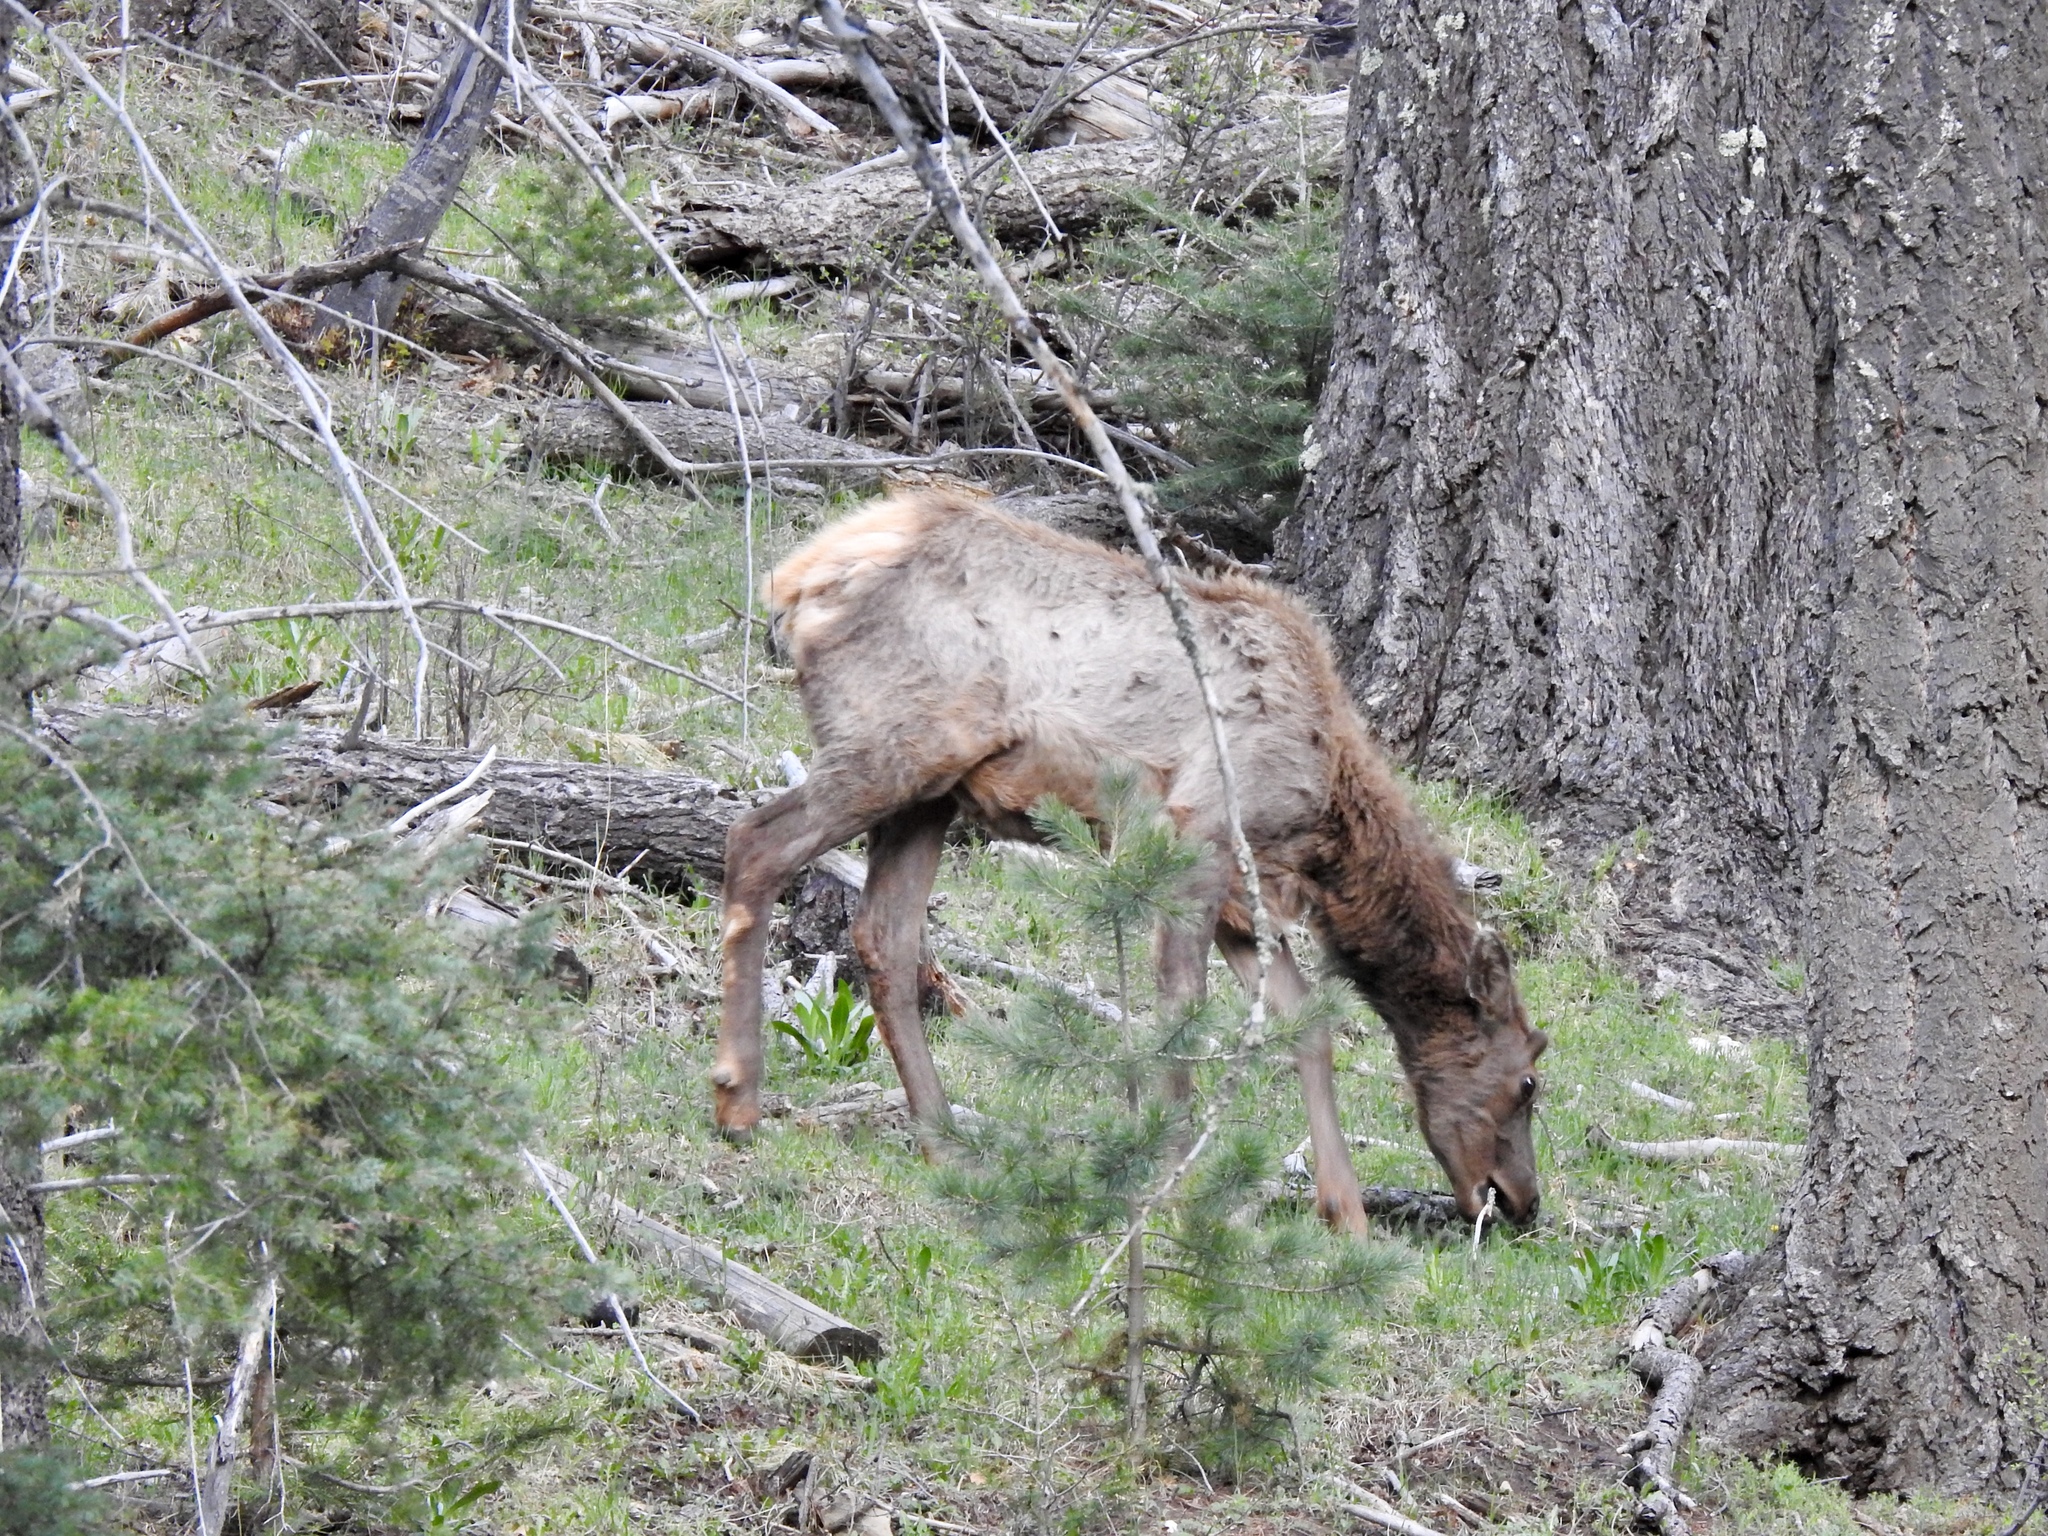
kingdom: Animalia
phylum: Chordata
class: Mammalia
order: Artiodactyla
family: Cervidae
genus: Cervus
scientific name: Cervus elaphus
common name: Red deer
